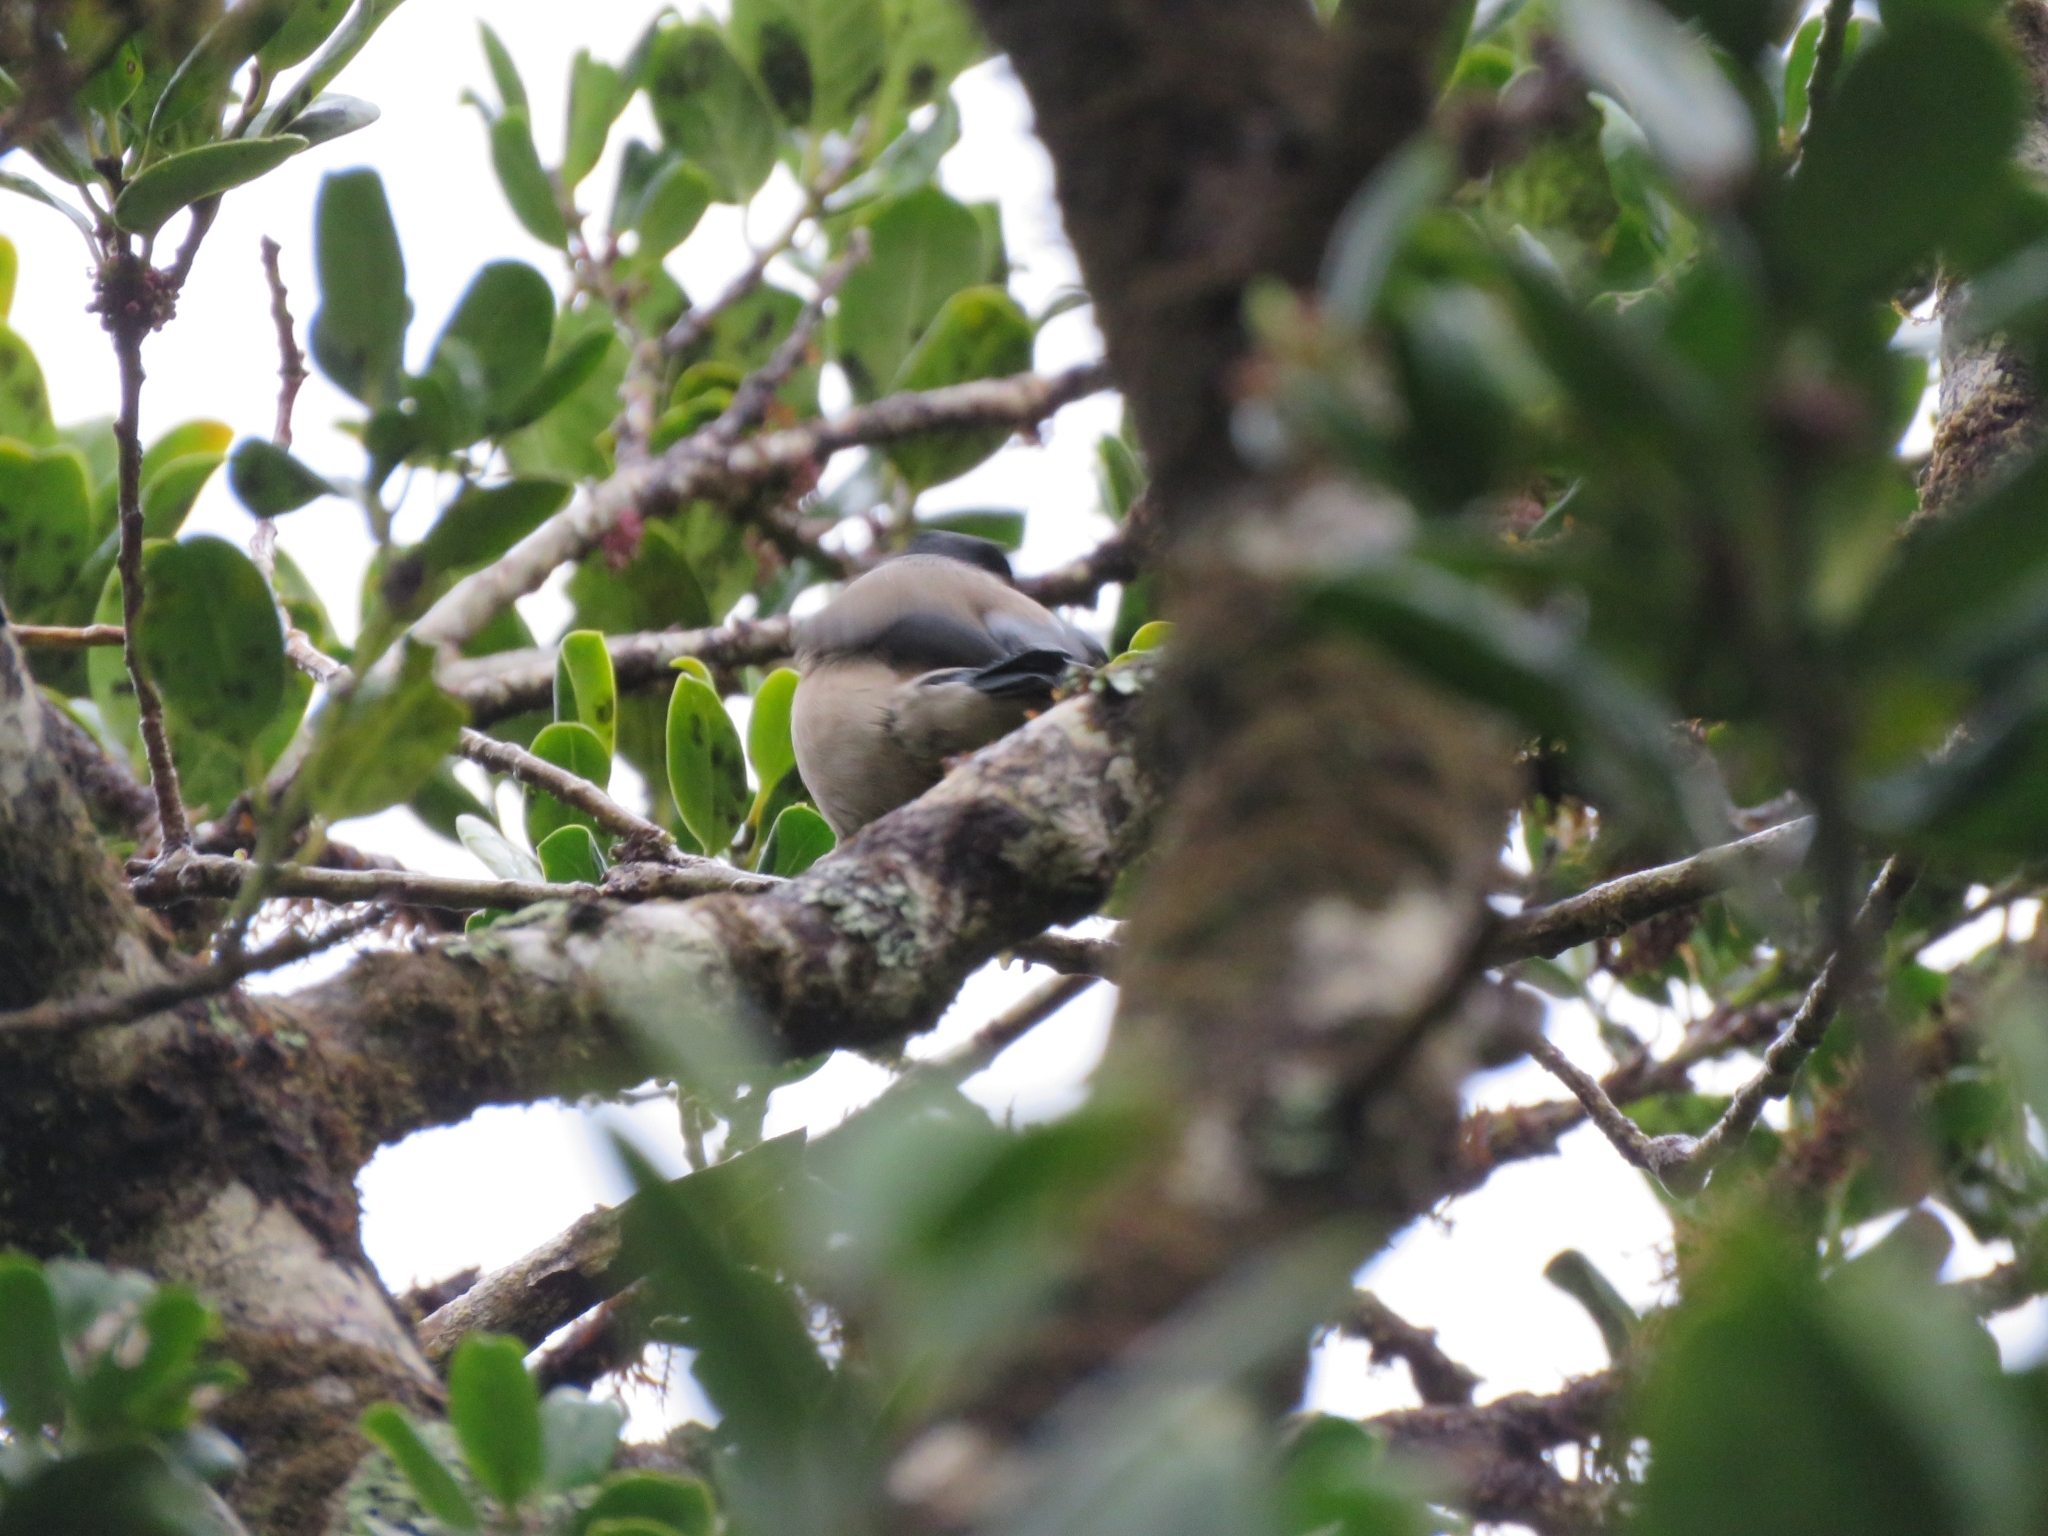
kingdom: Animalia
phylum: Chordata
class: Aves
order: Passeriformes
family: Fringillidae
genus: Pyrrhula
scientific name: Pyrrhula murina
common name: Azores bullfinch
